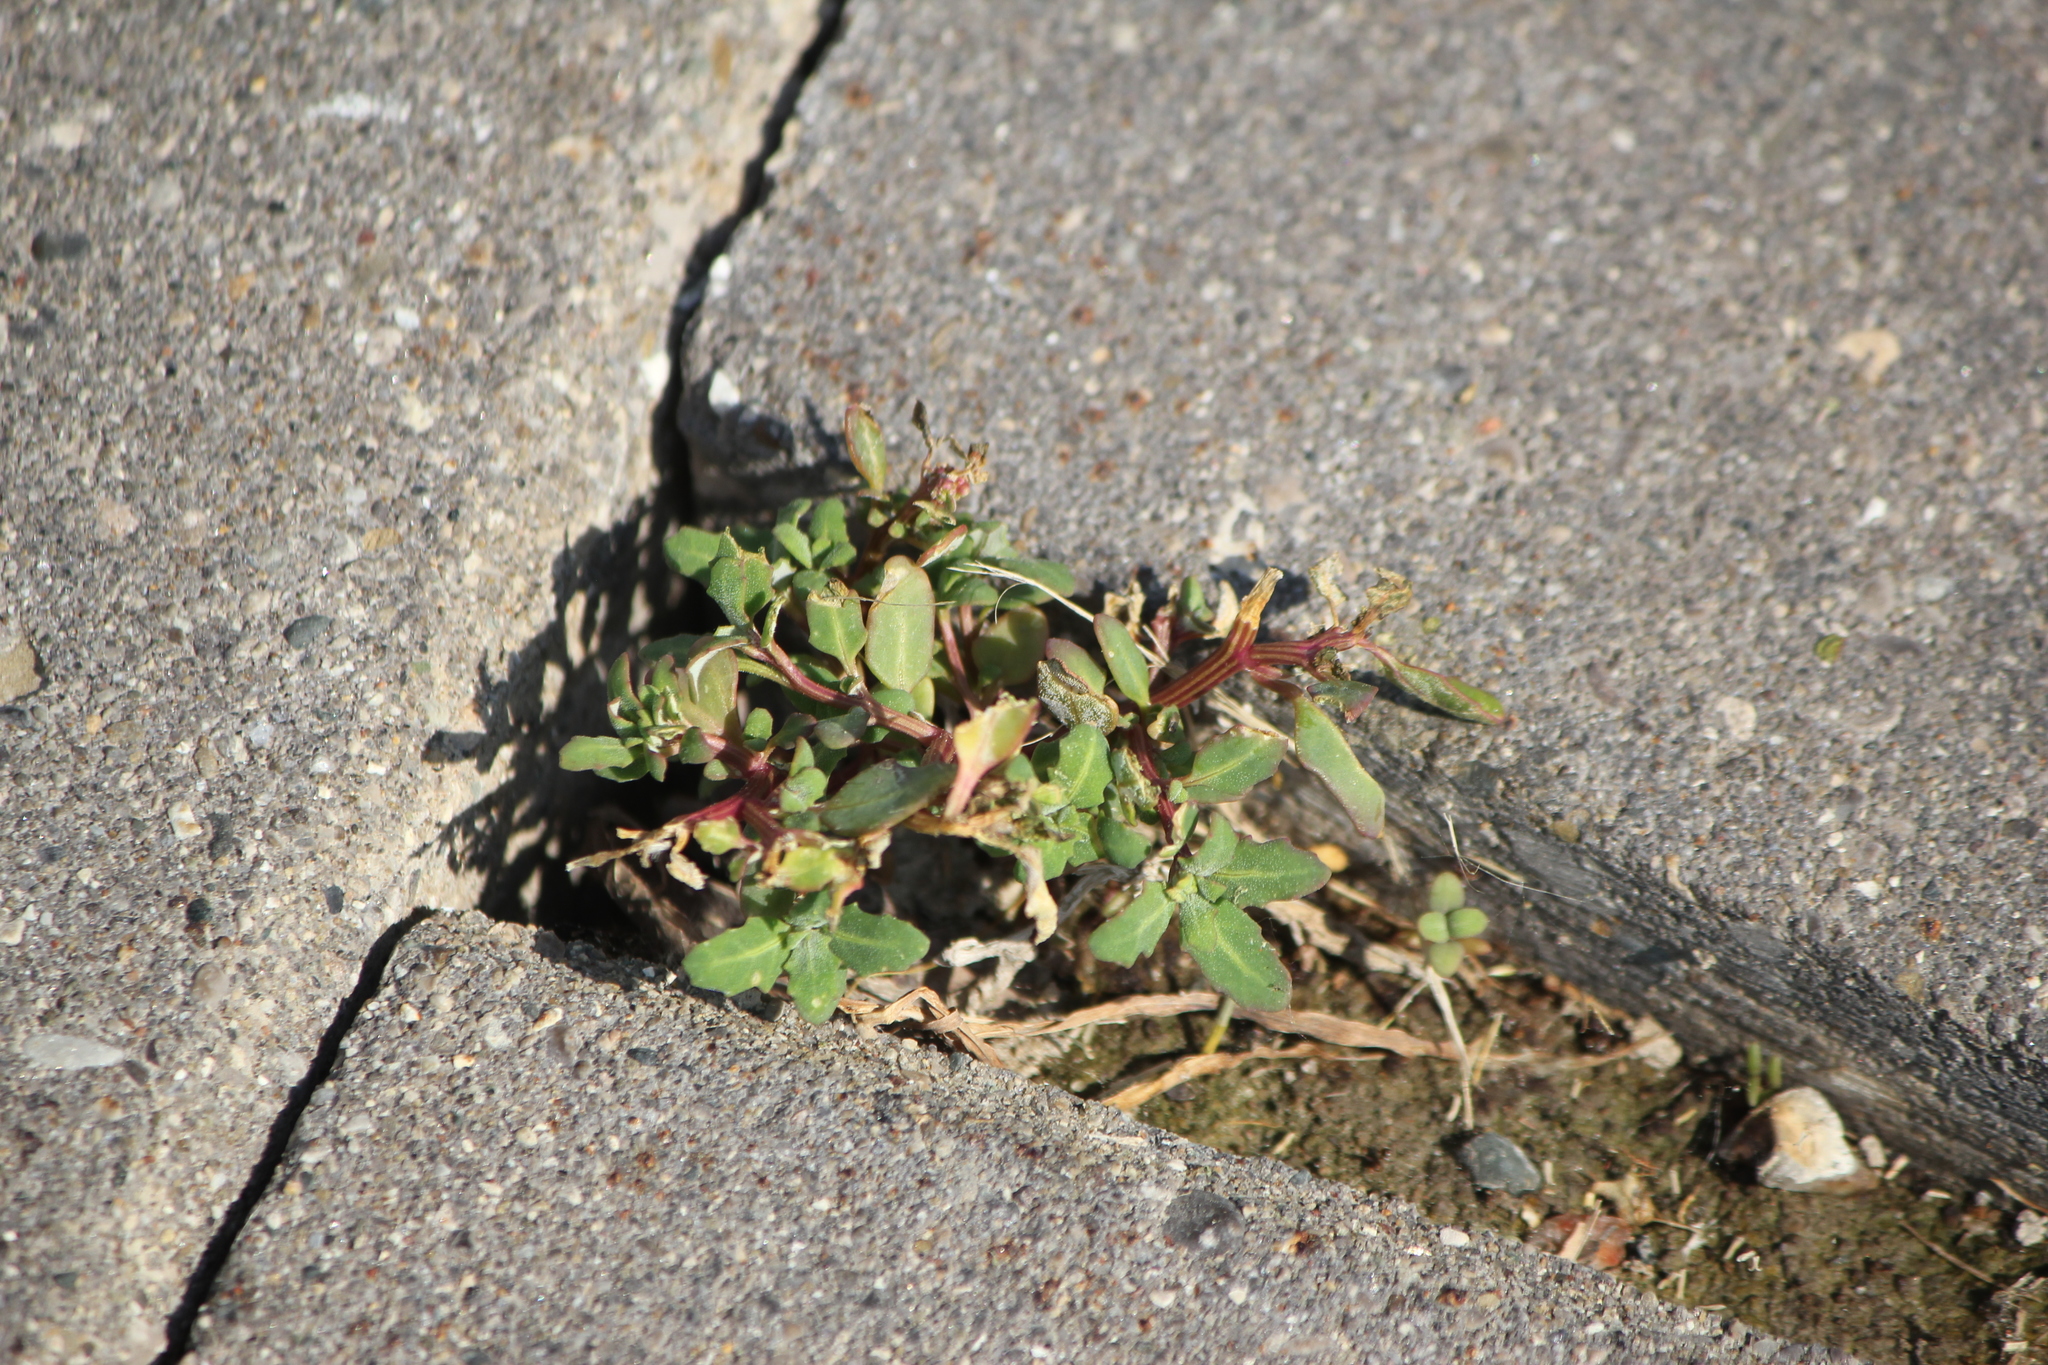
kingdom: Plantae
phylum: Tracheophyta
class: Magnoliopsida
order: Caryophyllales
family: Amaranthaceae
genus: Oxybasis
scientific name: Oxybasis glauca
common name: Glaucous goosefoot
